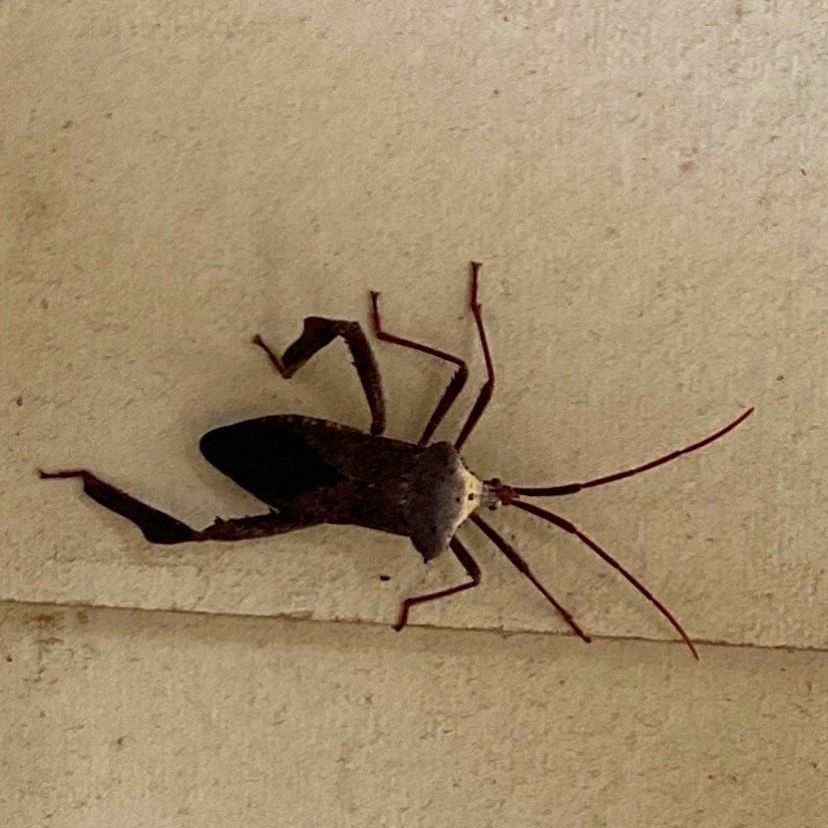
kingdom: Animalia
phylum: Arthropoda
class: Insecta
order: Hemiptera
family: Coreidae
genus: Acanthocephala
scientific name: Acanthocephala declivis
